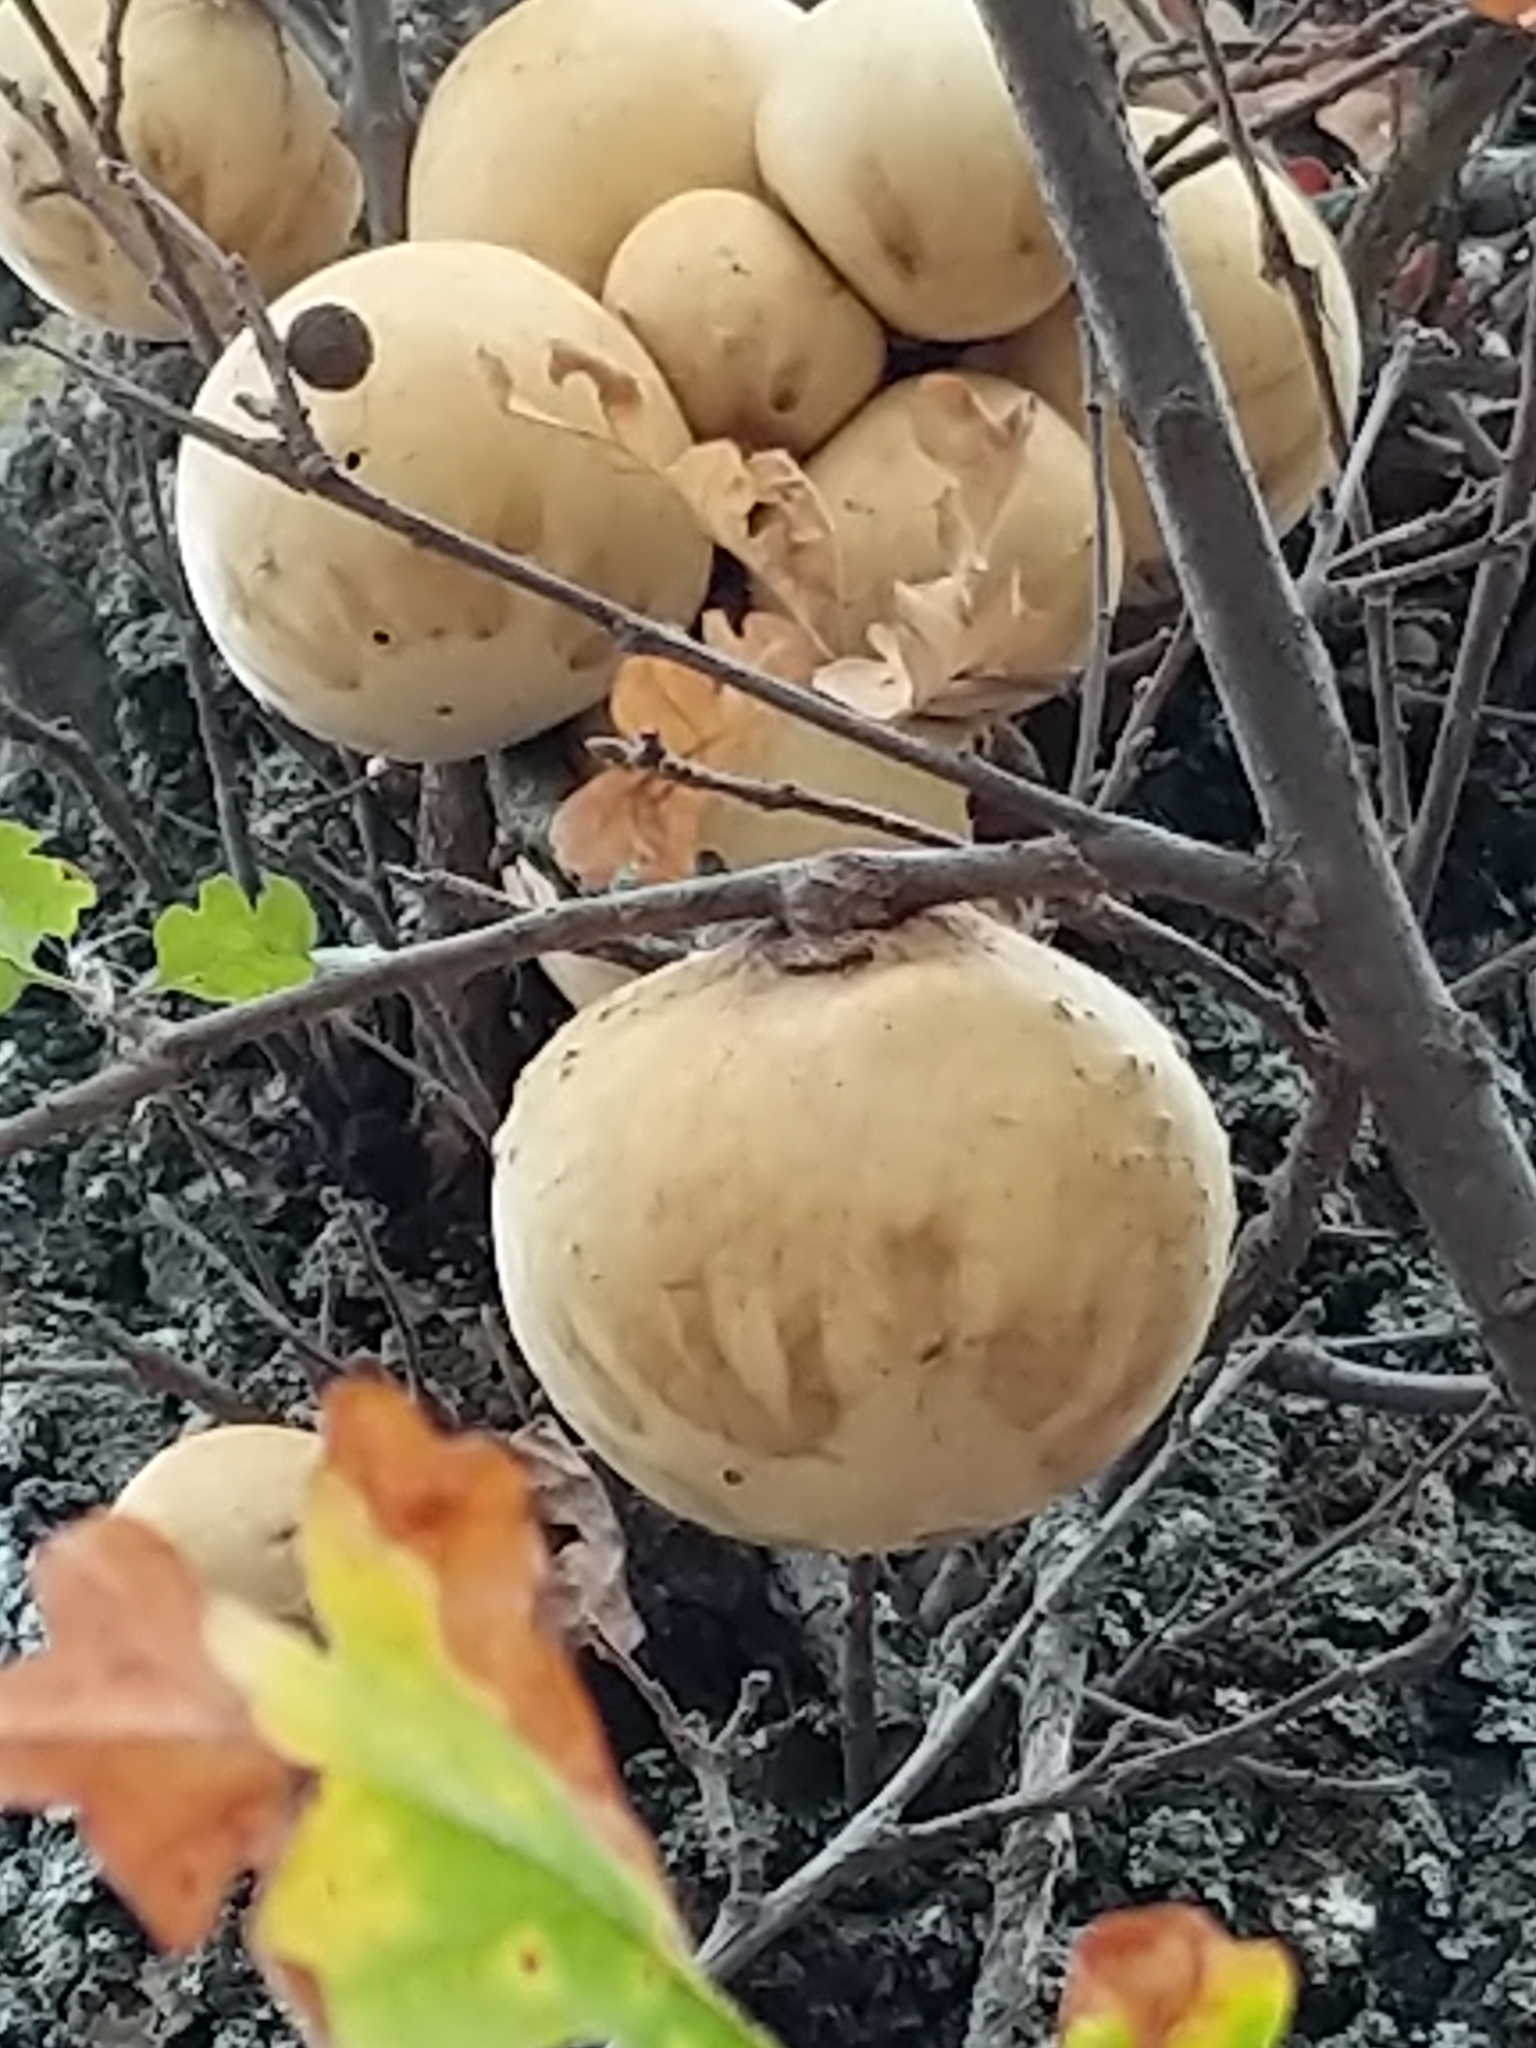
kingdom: Animalia
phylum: Arthropoda
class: Insecta
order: Hymenoptera
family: Cynipidae
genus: Andricus
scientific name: Andricus quercuscalifornicus
